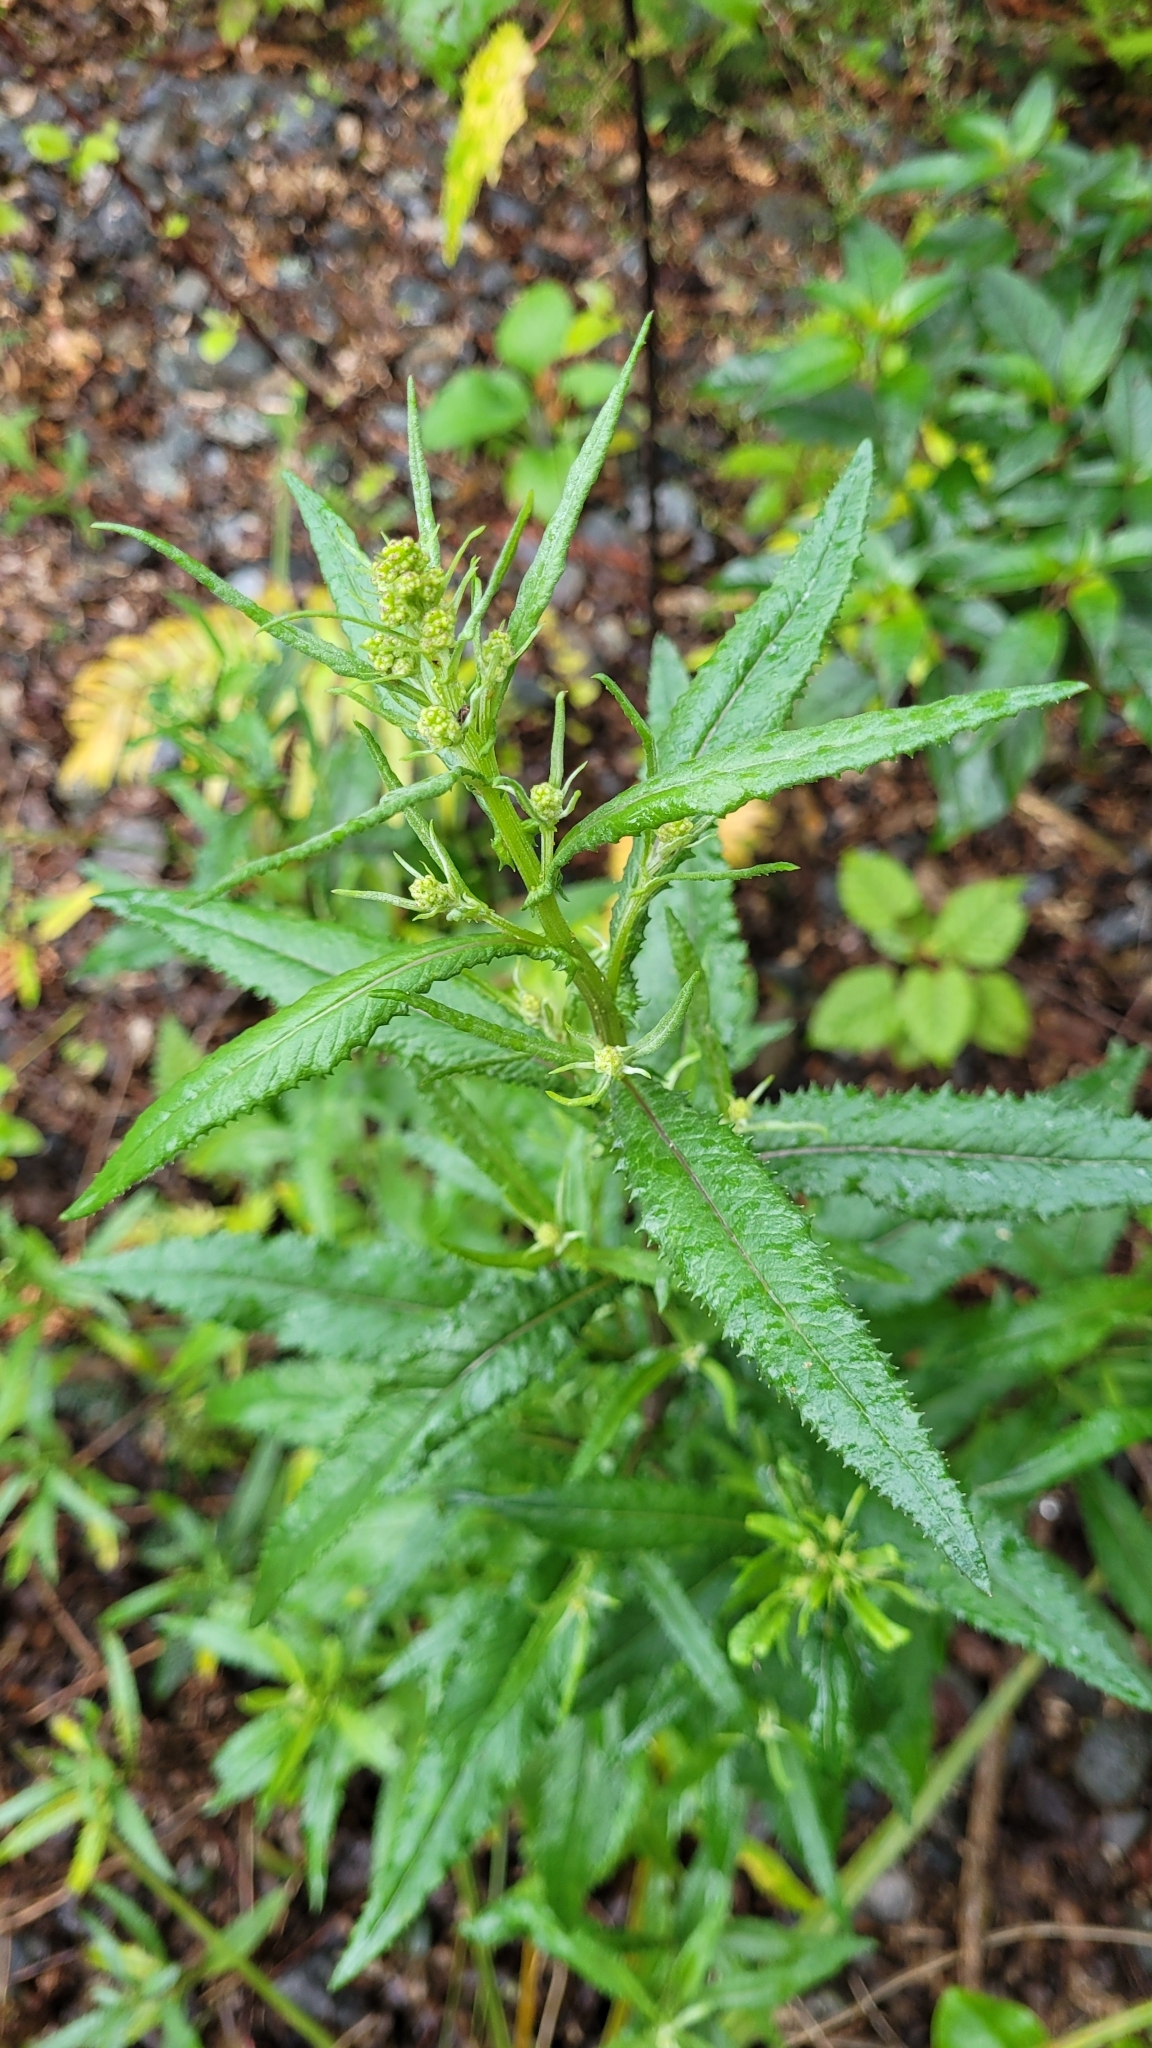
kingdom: Plantae
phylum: Tracheophyta
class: Magnoliopsida
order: Asterales
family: Asteraceae
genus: Senecio
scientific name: Senecio minimus
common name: Toothed fireweed
